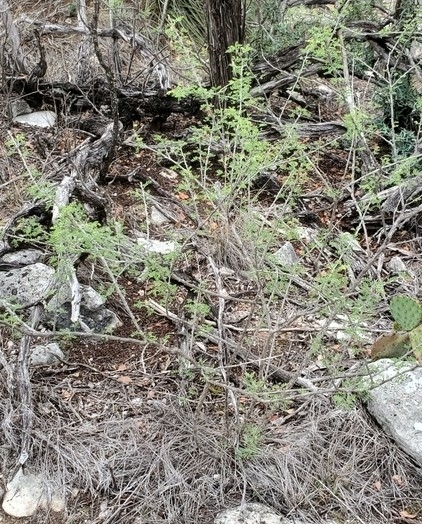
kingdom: Plantae
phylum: Tracheophyta
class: Magnoliopsida
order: Fabales
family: Fabaceae
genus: Mimosa
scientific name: Mimosa borealis
